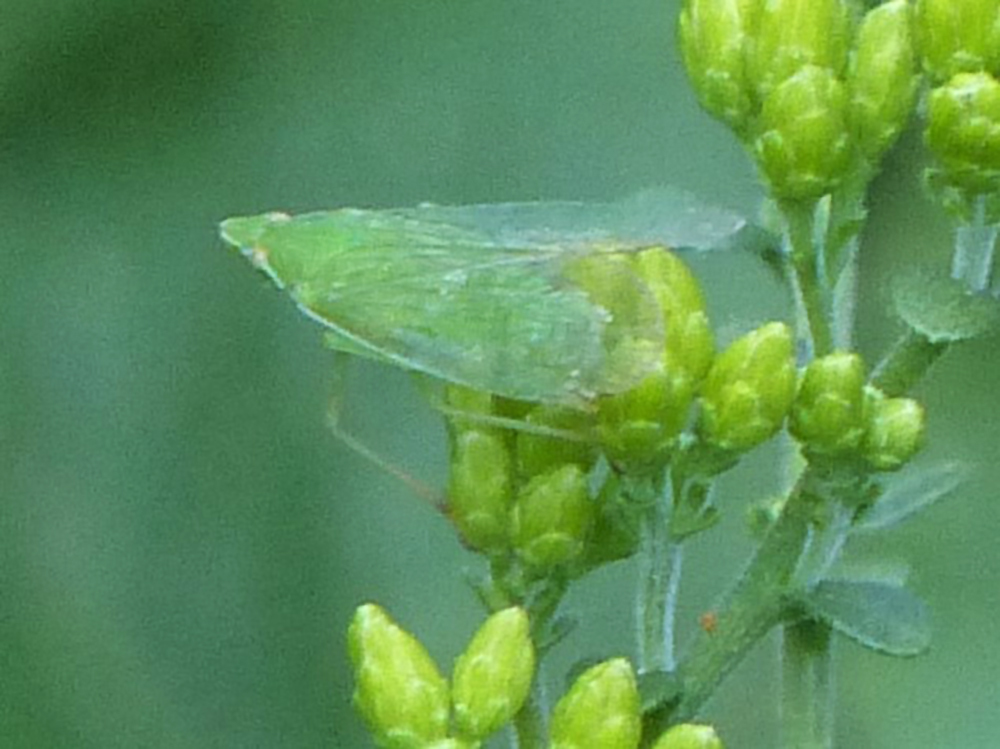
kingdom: Animalia
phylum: Arthropoda
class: Insecta
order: Hemiptera
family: Dictyopharidae
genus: Nersia
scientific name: Nersia florida
